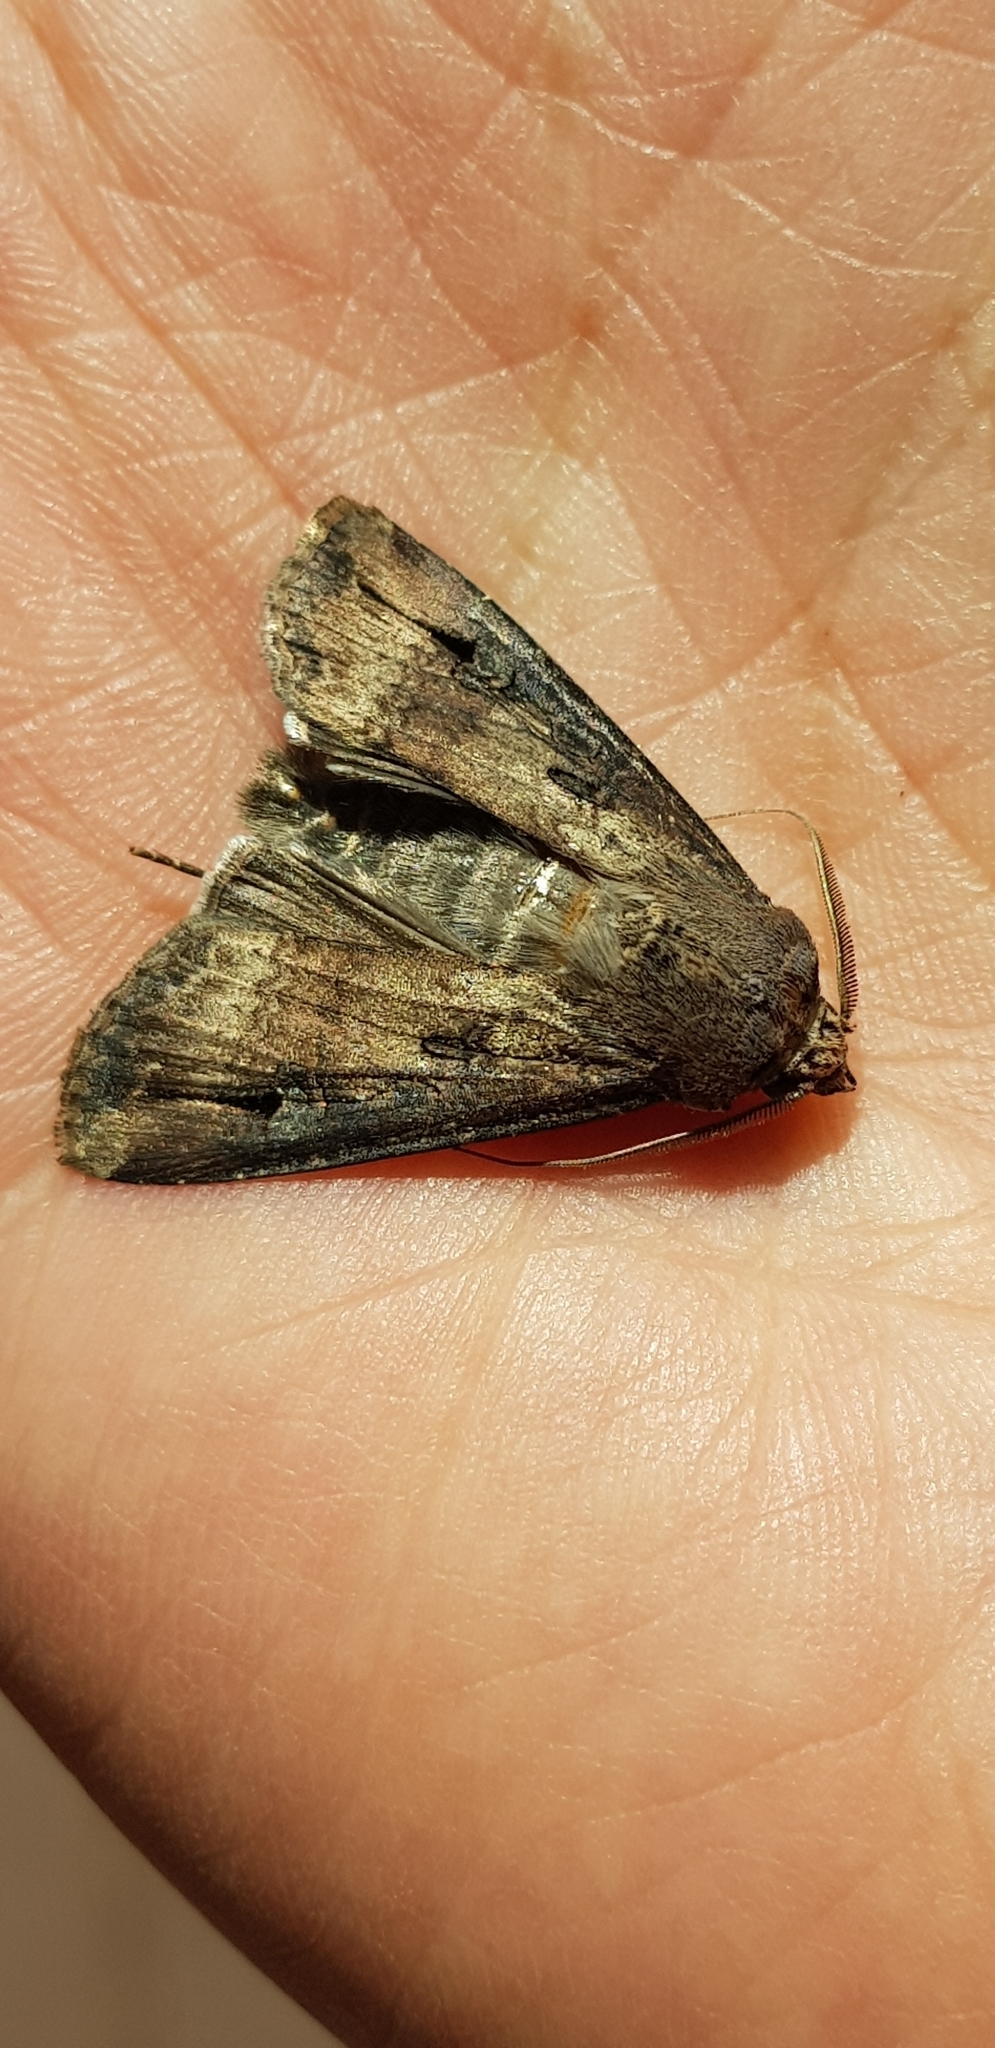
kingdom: Animalia
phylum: Arthropoda
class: Insecta
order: Lepidoptera
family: Noctuidae
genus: Agrotis
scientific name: Agrotis ipsilon
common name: Dark sword-grass
